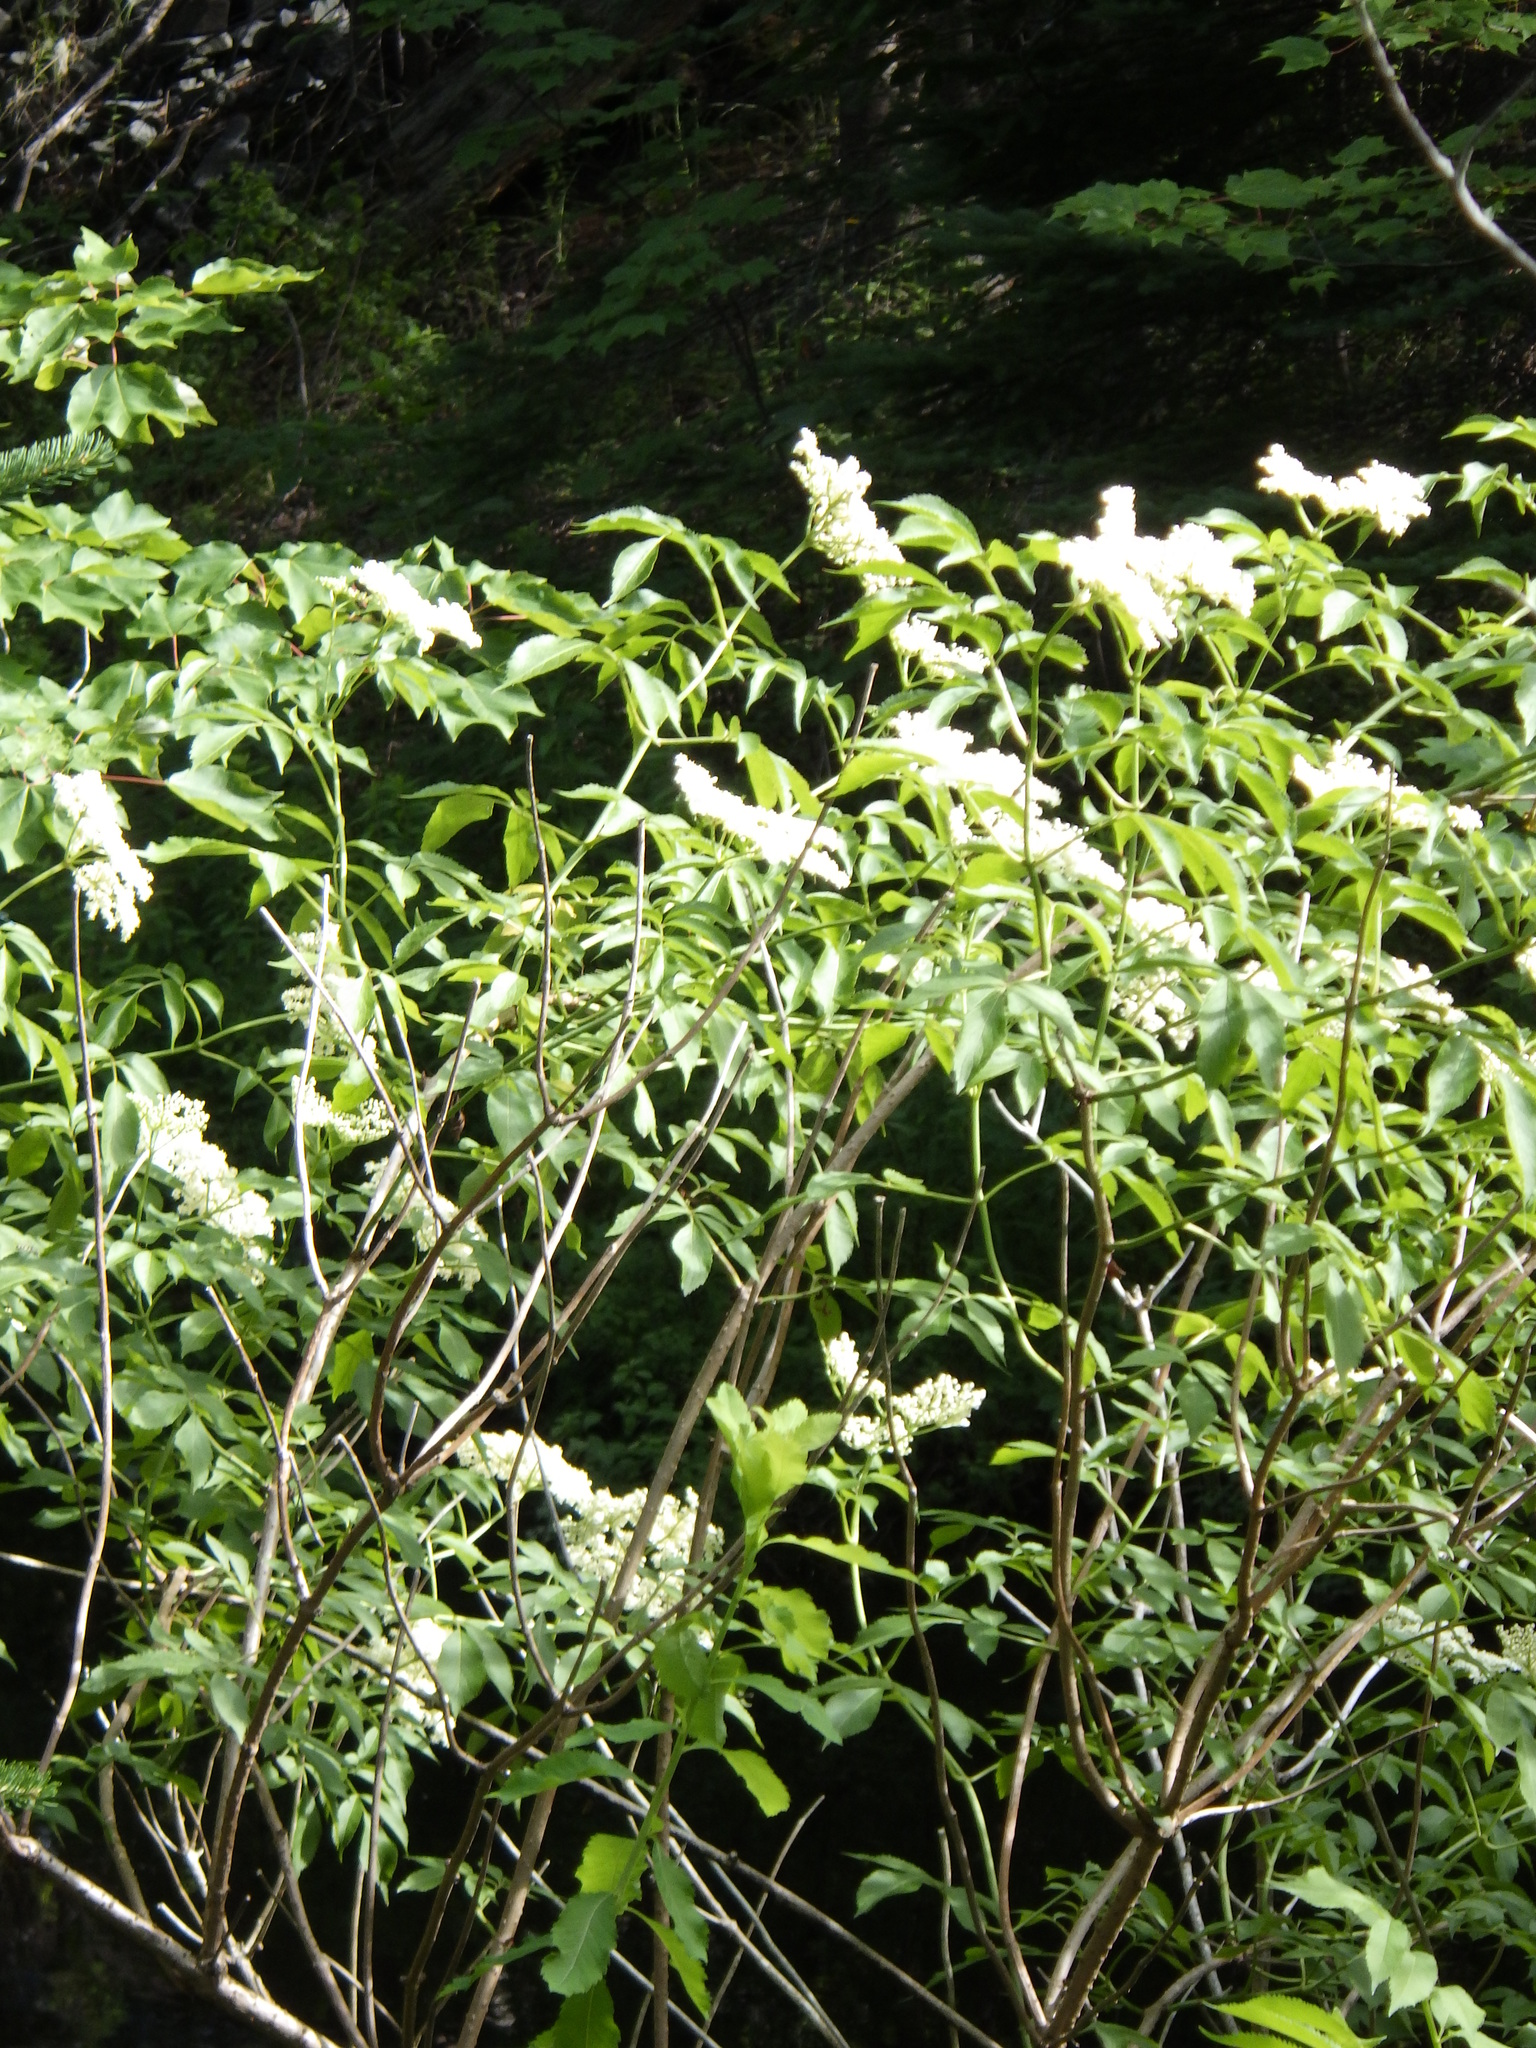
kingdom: Plantae
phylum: Tracheophyta
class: Magnoliopsida
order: Dipsacales
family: Viburnaceae
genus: Sambucus
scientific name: Sambucus canadensis
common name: American elder
